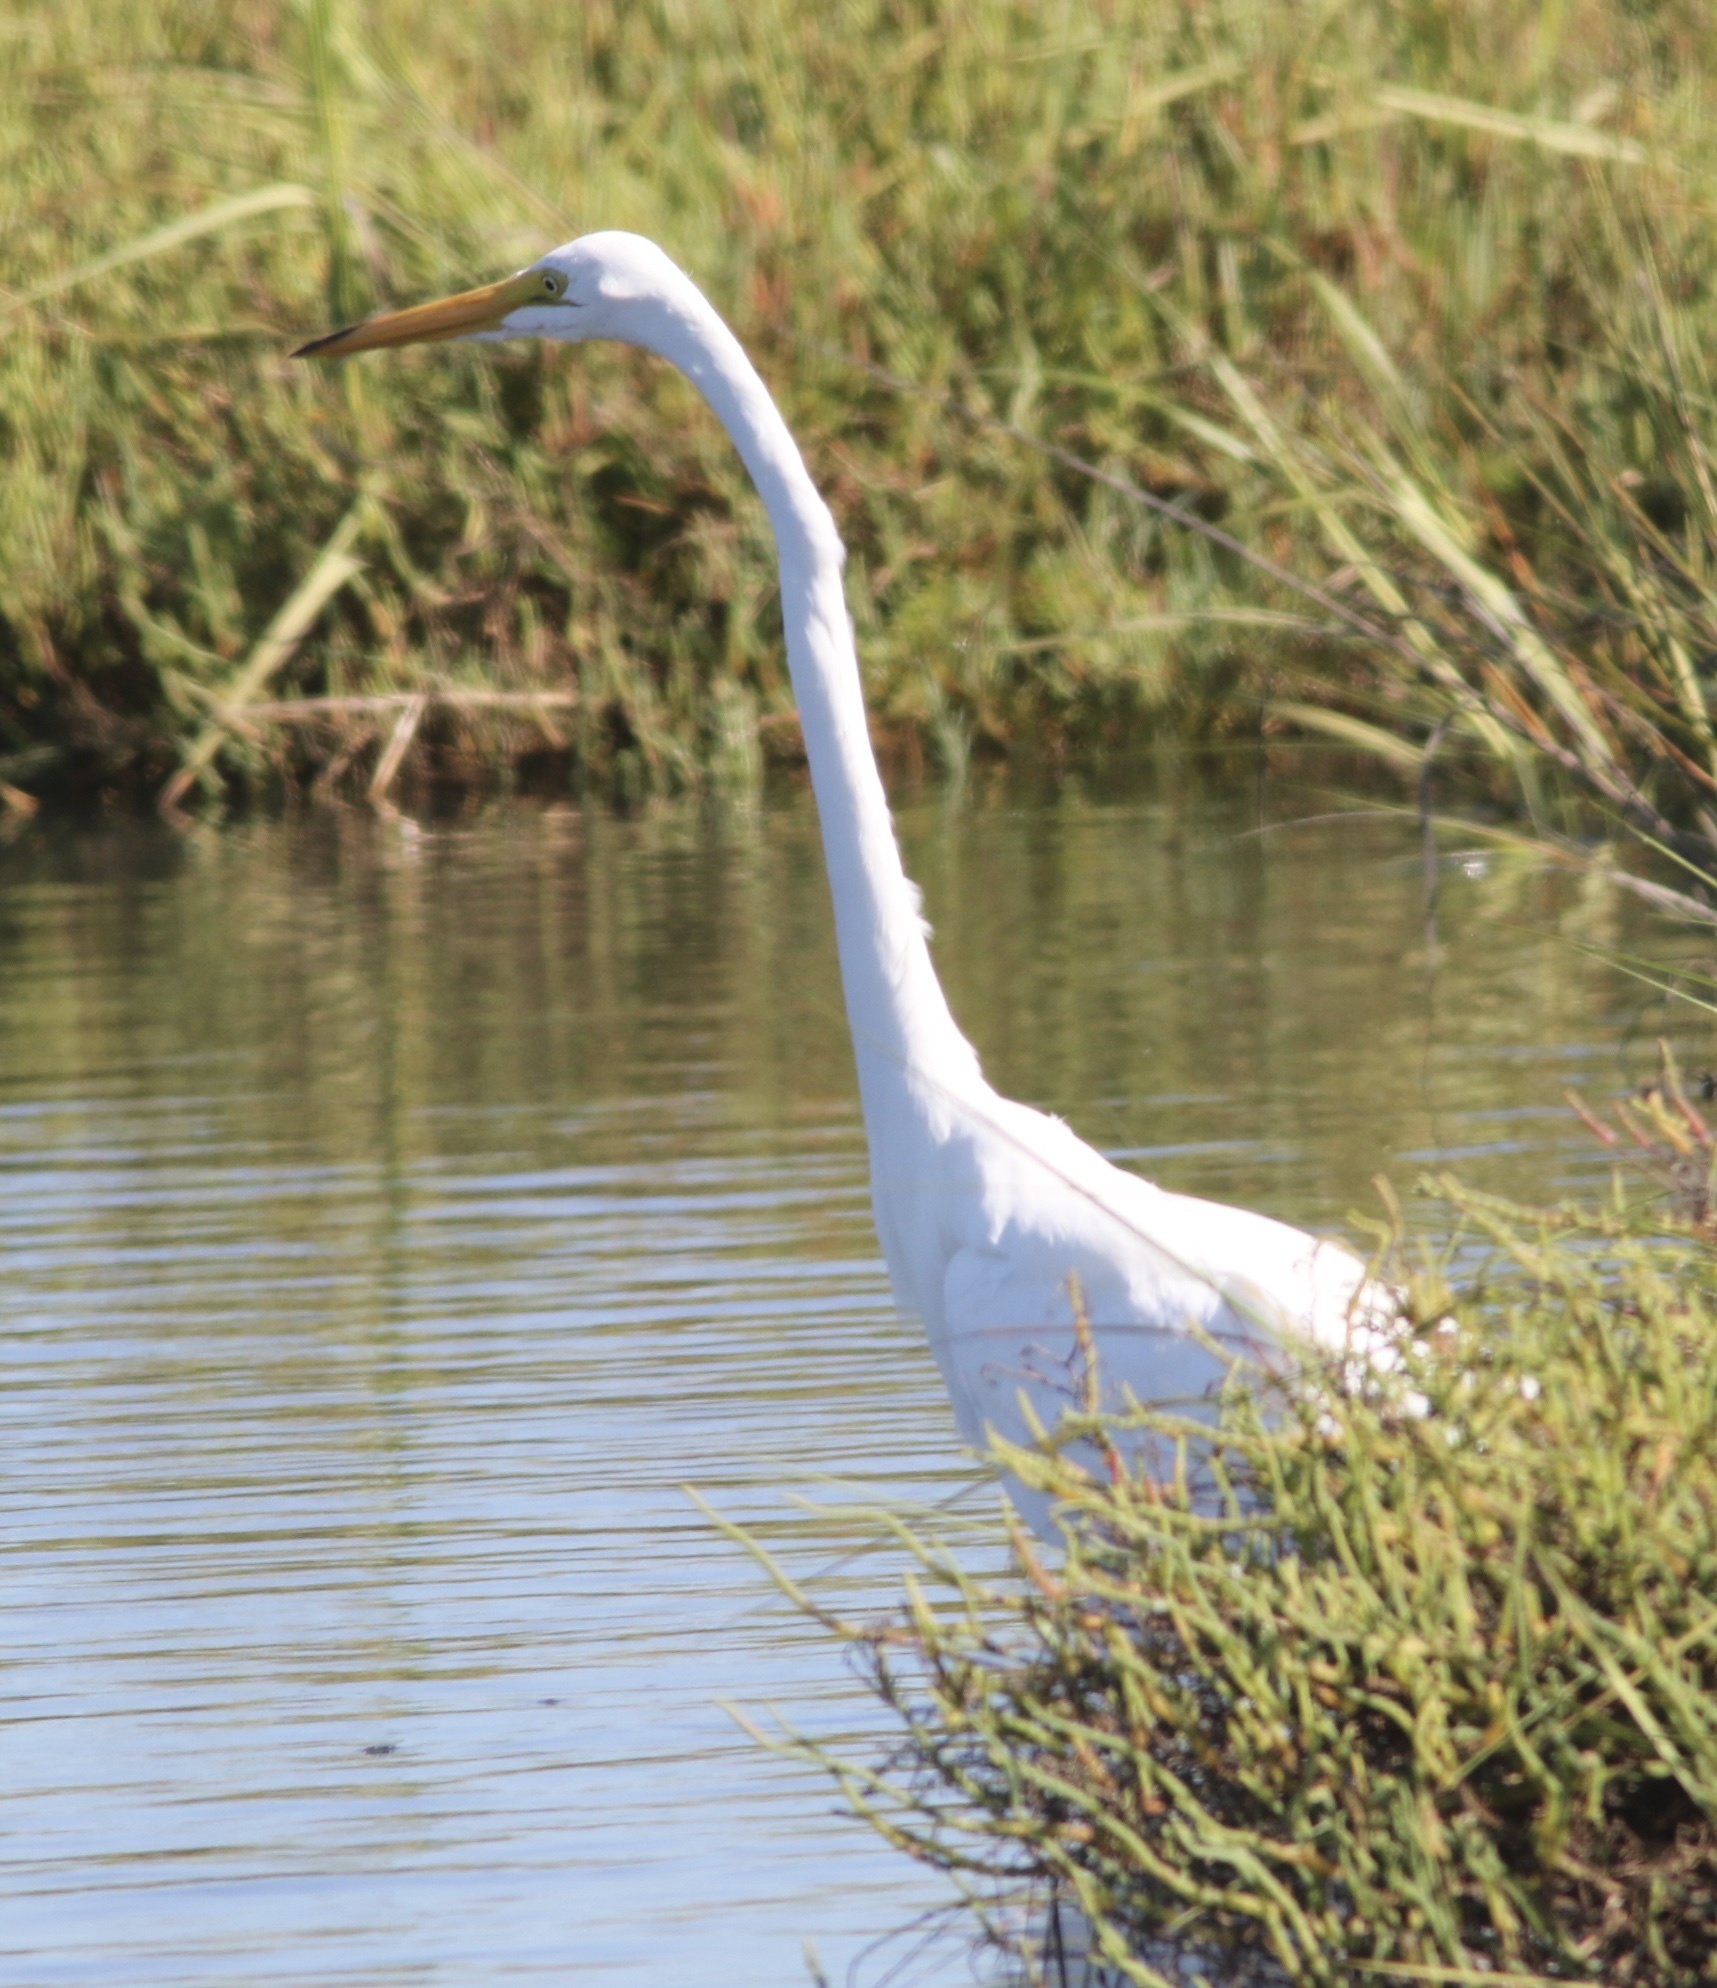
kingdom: Animalia
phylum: Chordata
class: Aves
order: Pelecaniformes
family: Ardeidae
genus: Ardea
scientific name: Ardea alba
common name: Great egret
